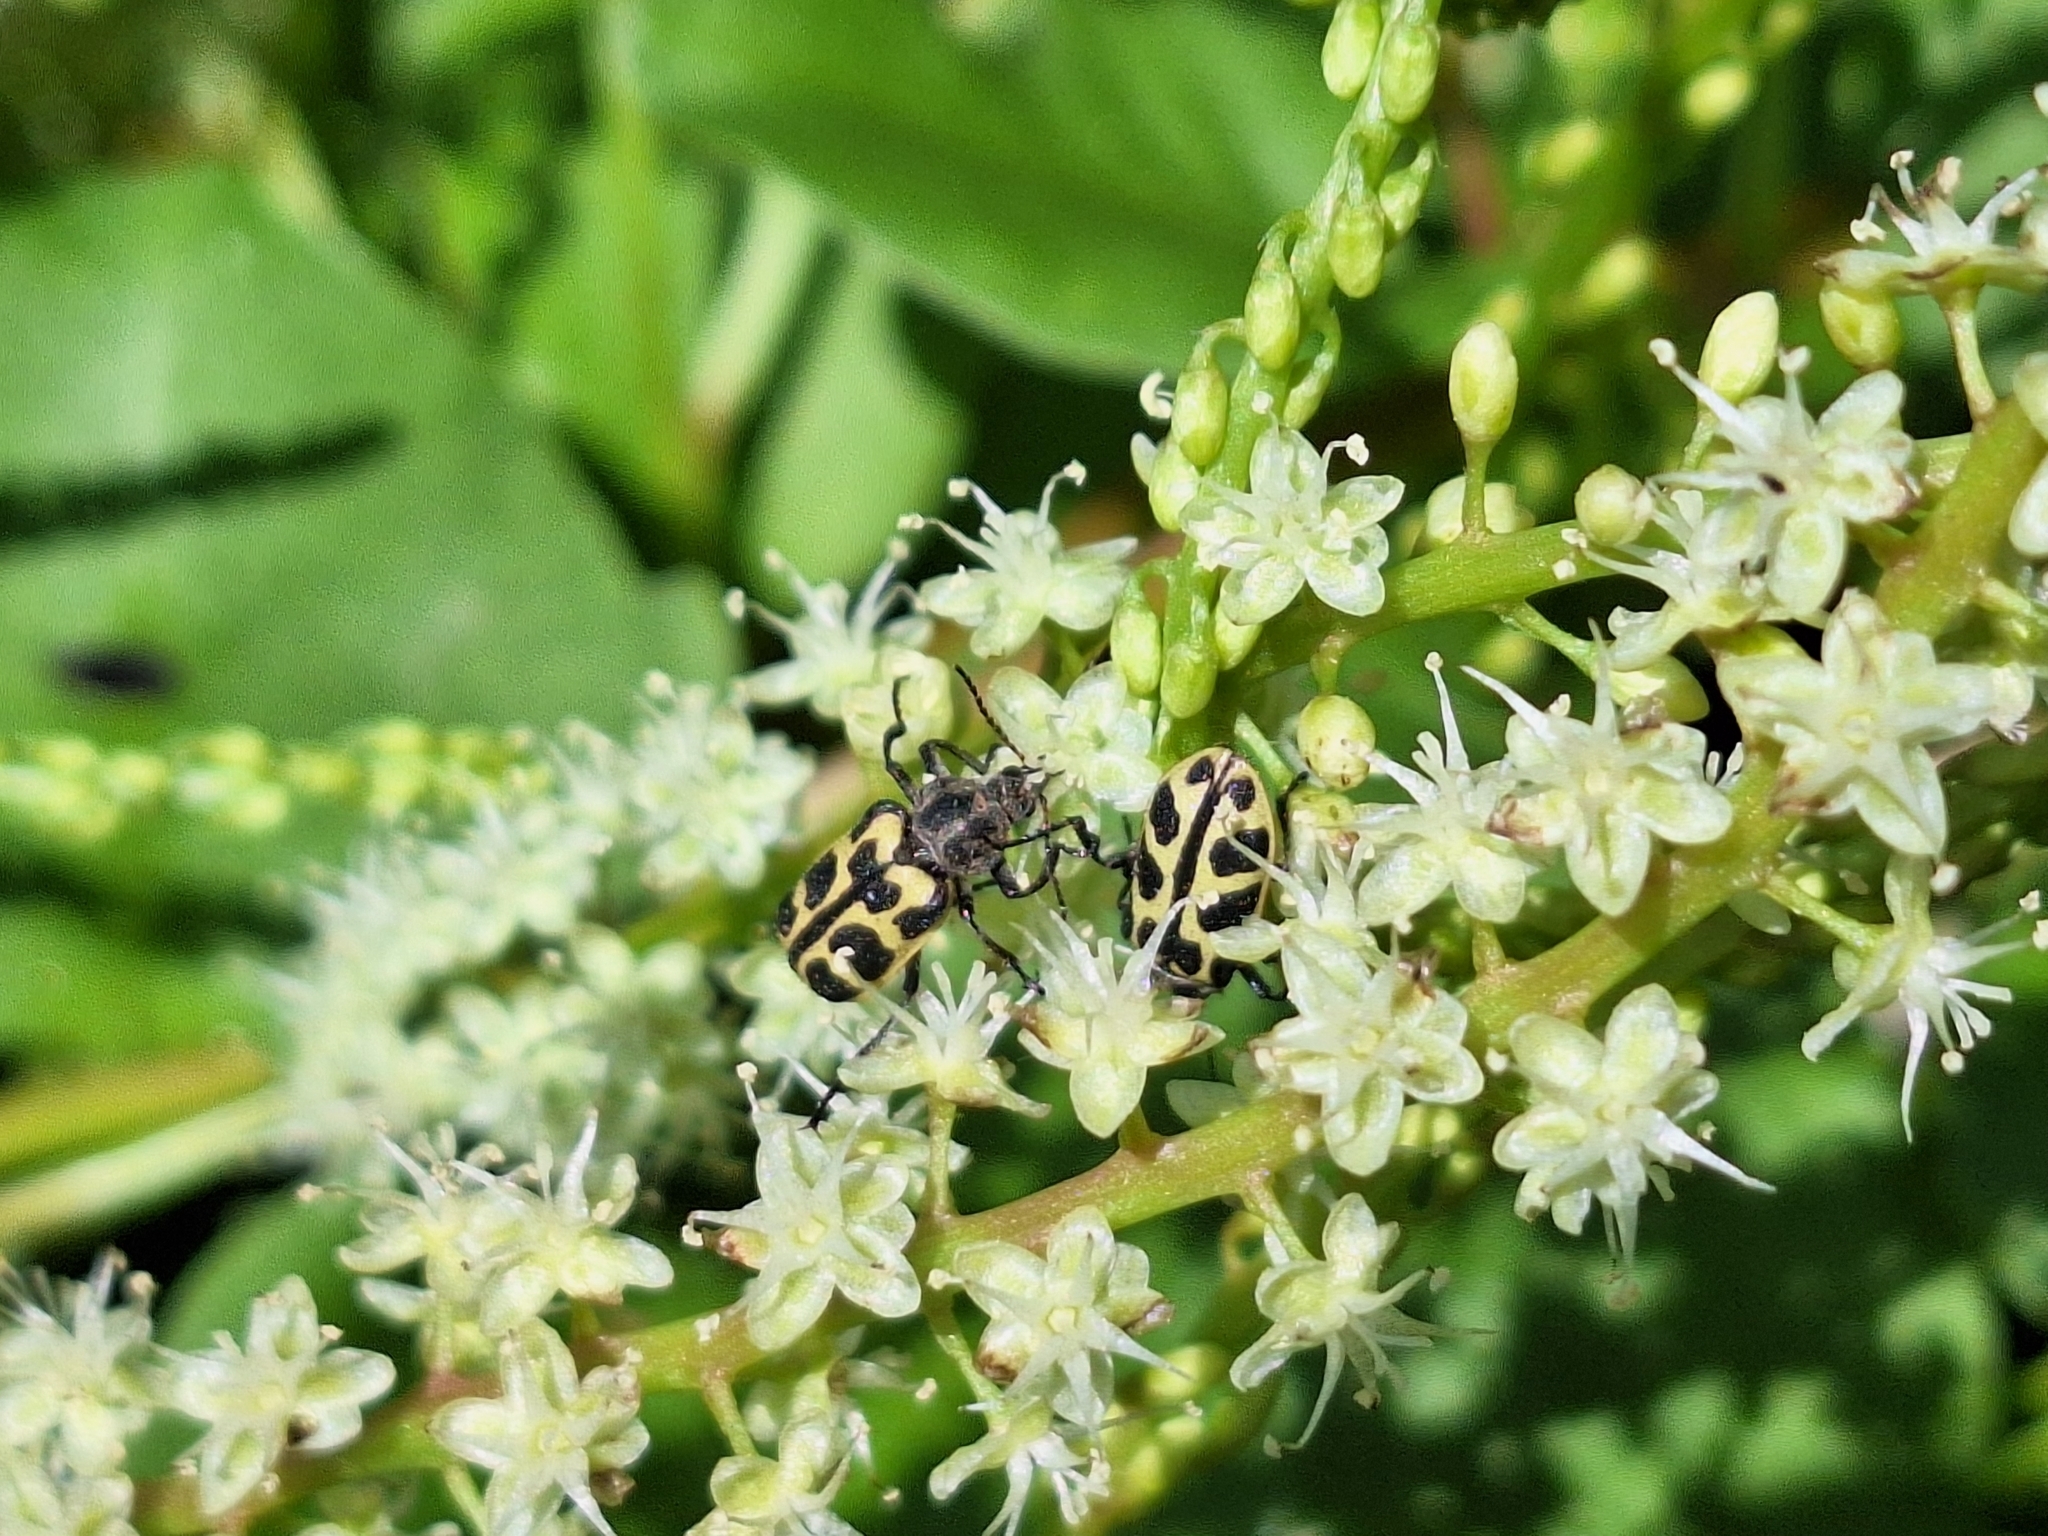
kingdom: Animalia
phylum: Arthropoda
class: Insecta
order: Coleoptera
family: Melyridae
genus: Astylus
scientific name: Astylus atromaculatus
